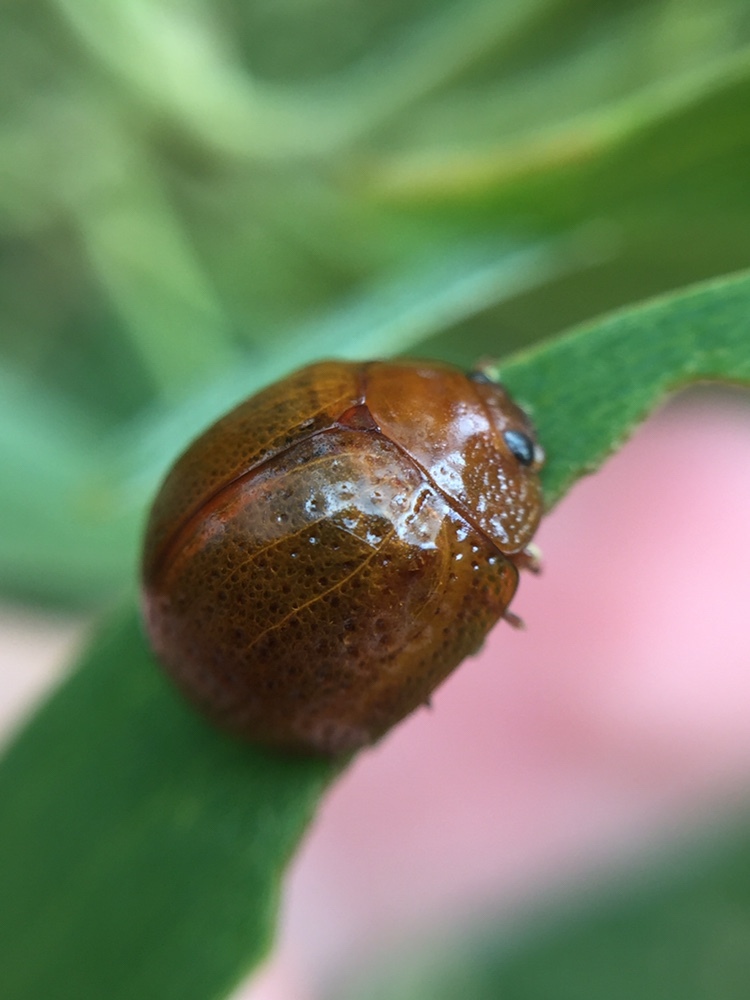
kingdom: Animalia
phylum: Arthropoda
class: Insecta
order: Coleoptera
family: Chrysomelidae
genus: Dicranosterna
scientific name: Dicranosterna
